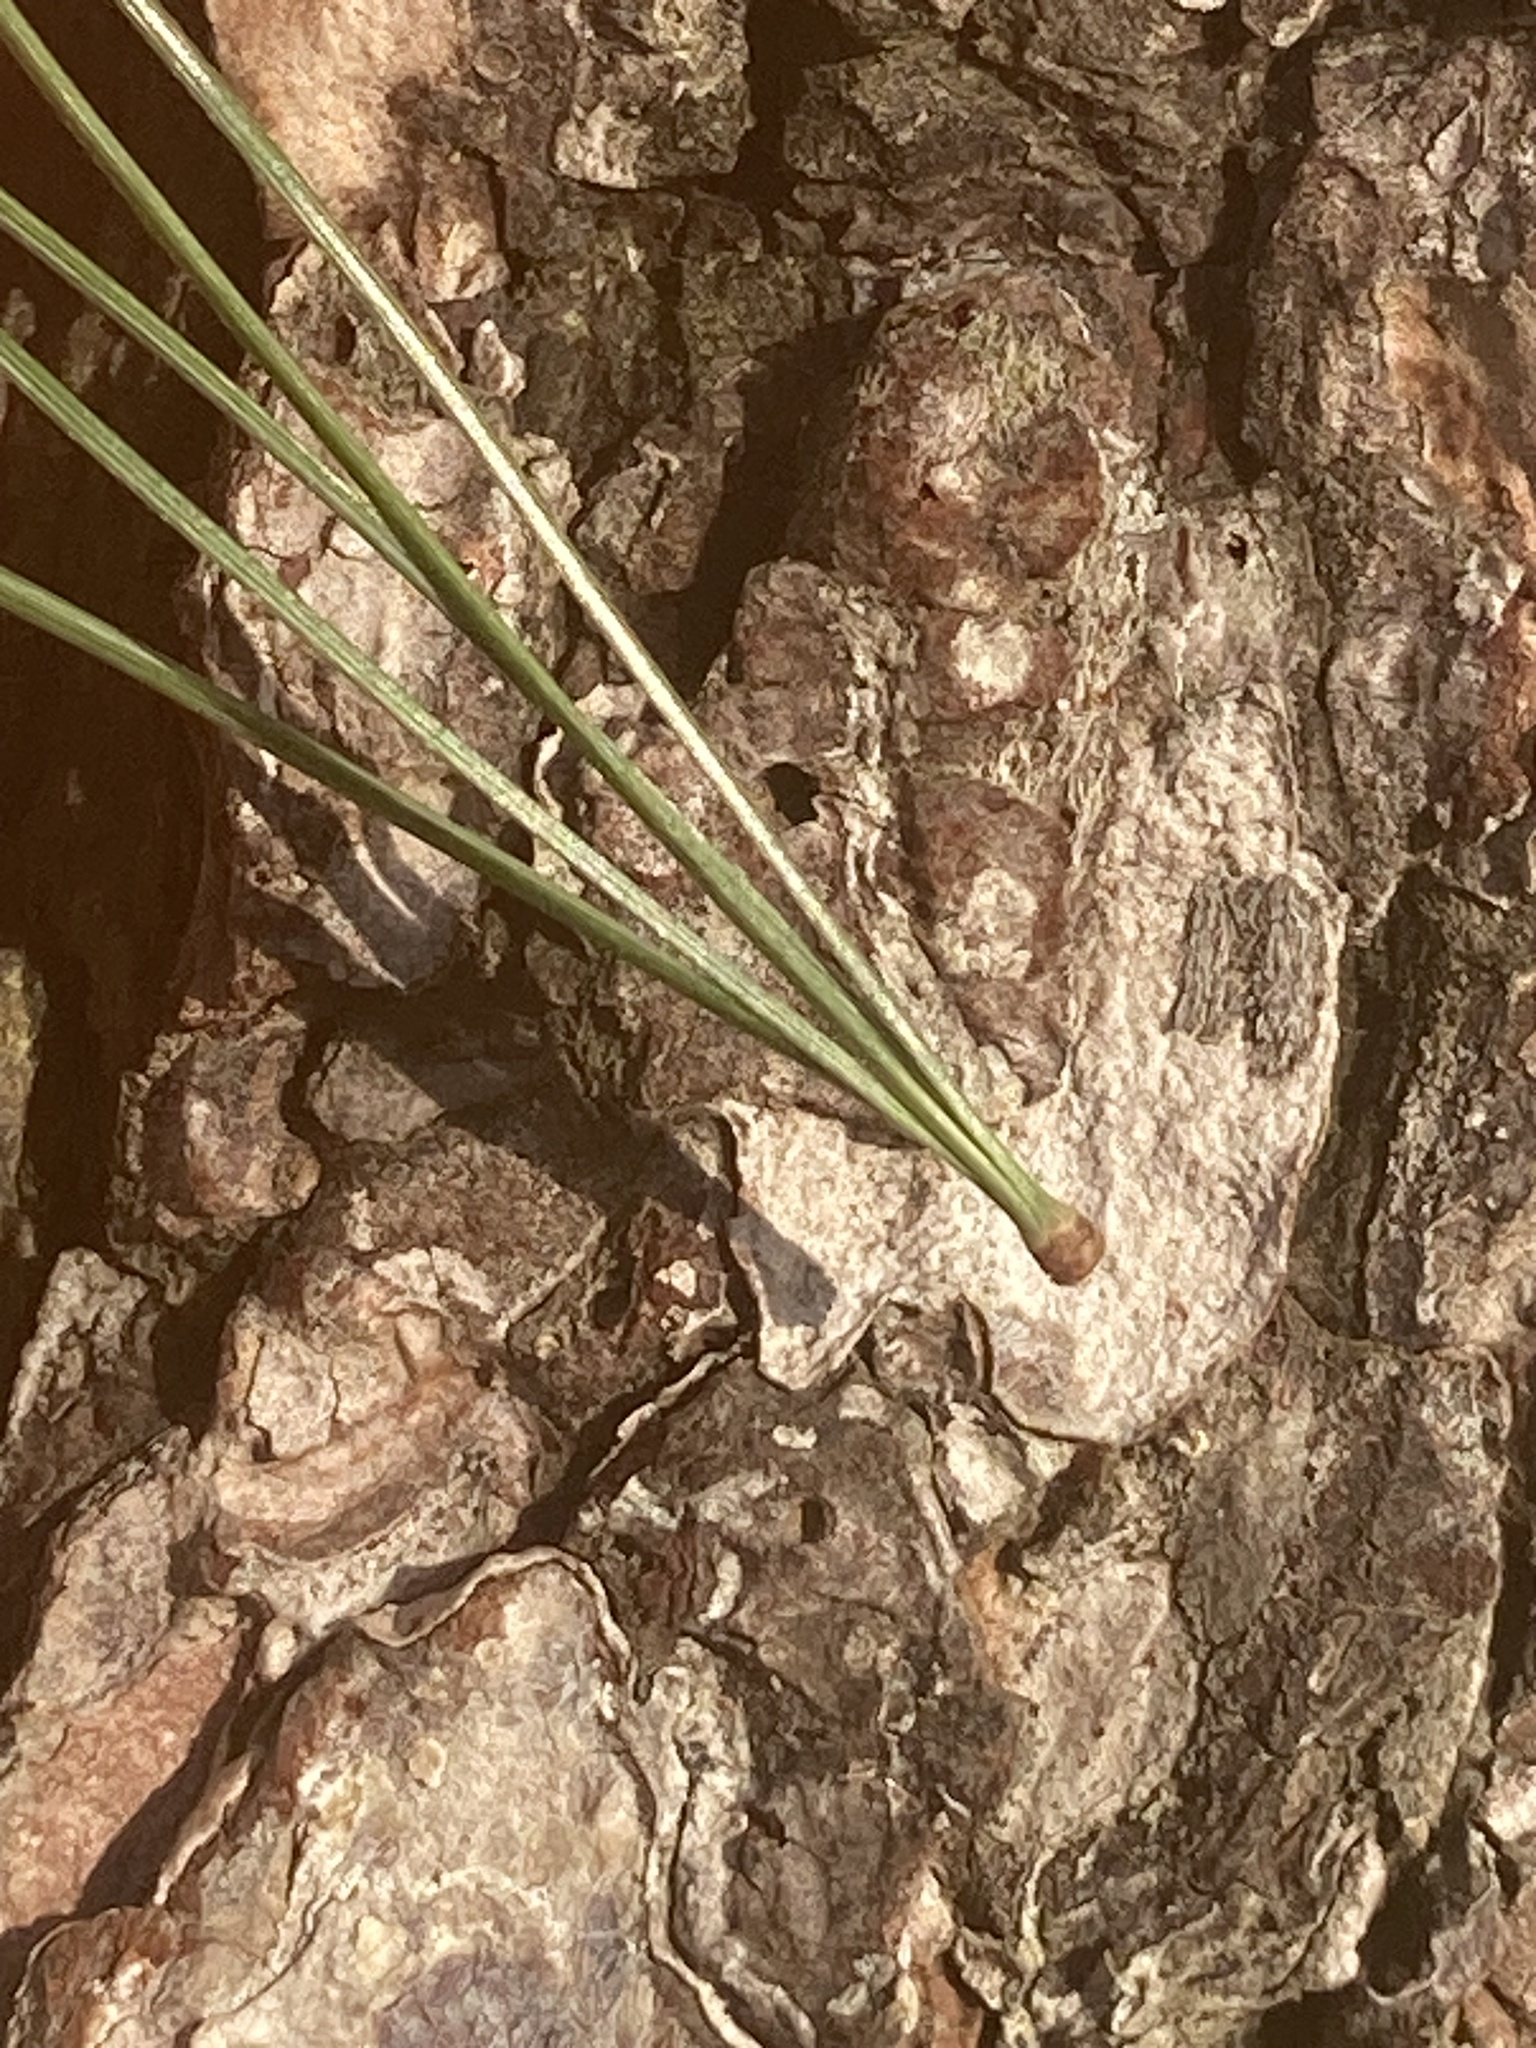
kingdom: Plantae
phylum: Tracheophyta
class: Pinopsida
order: Pinales
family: Pinaceae
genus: Pinus
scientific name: Pinus strobus
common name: Weymouth pine
